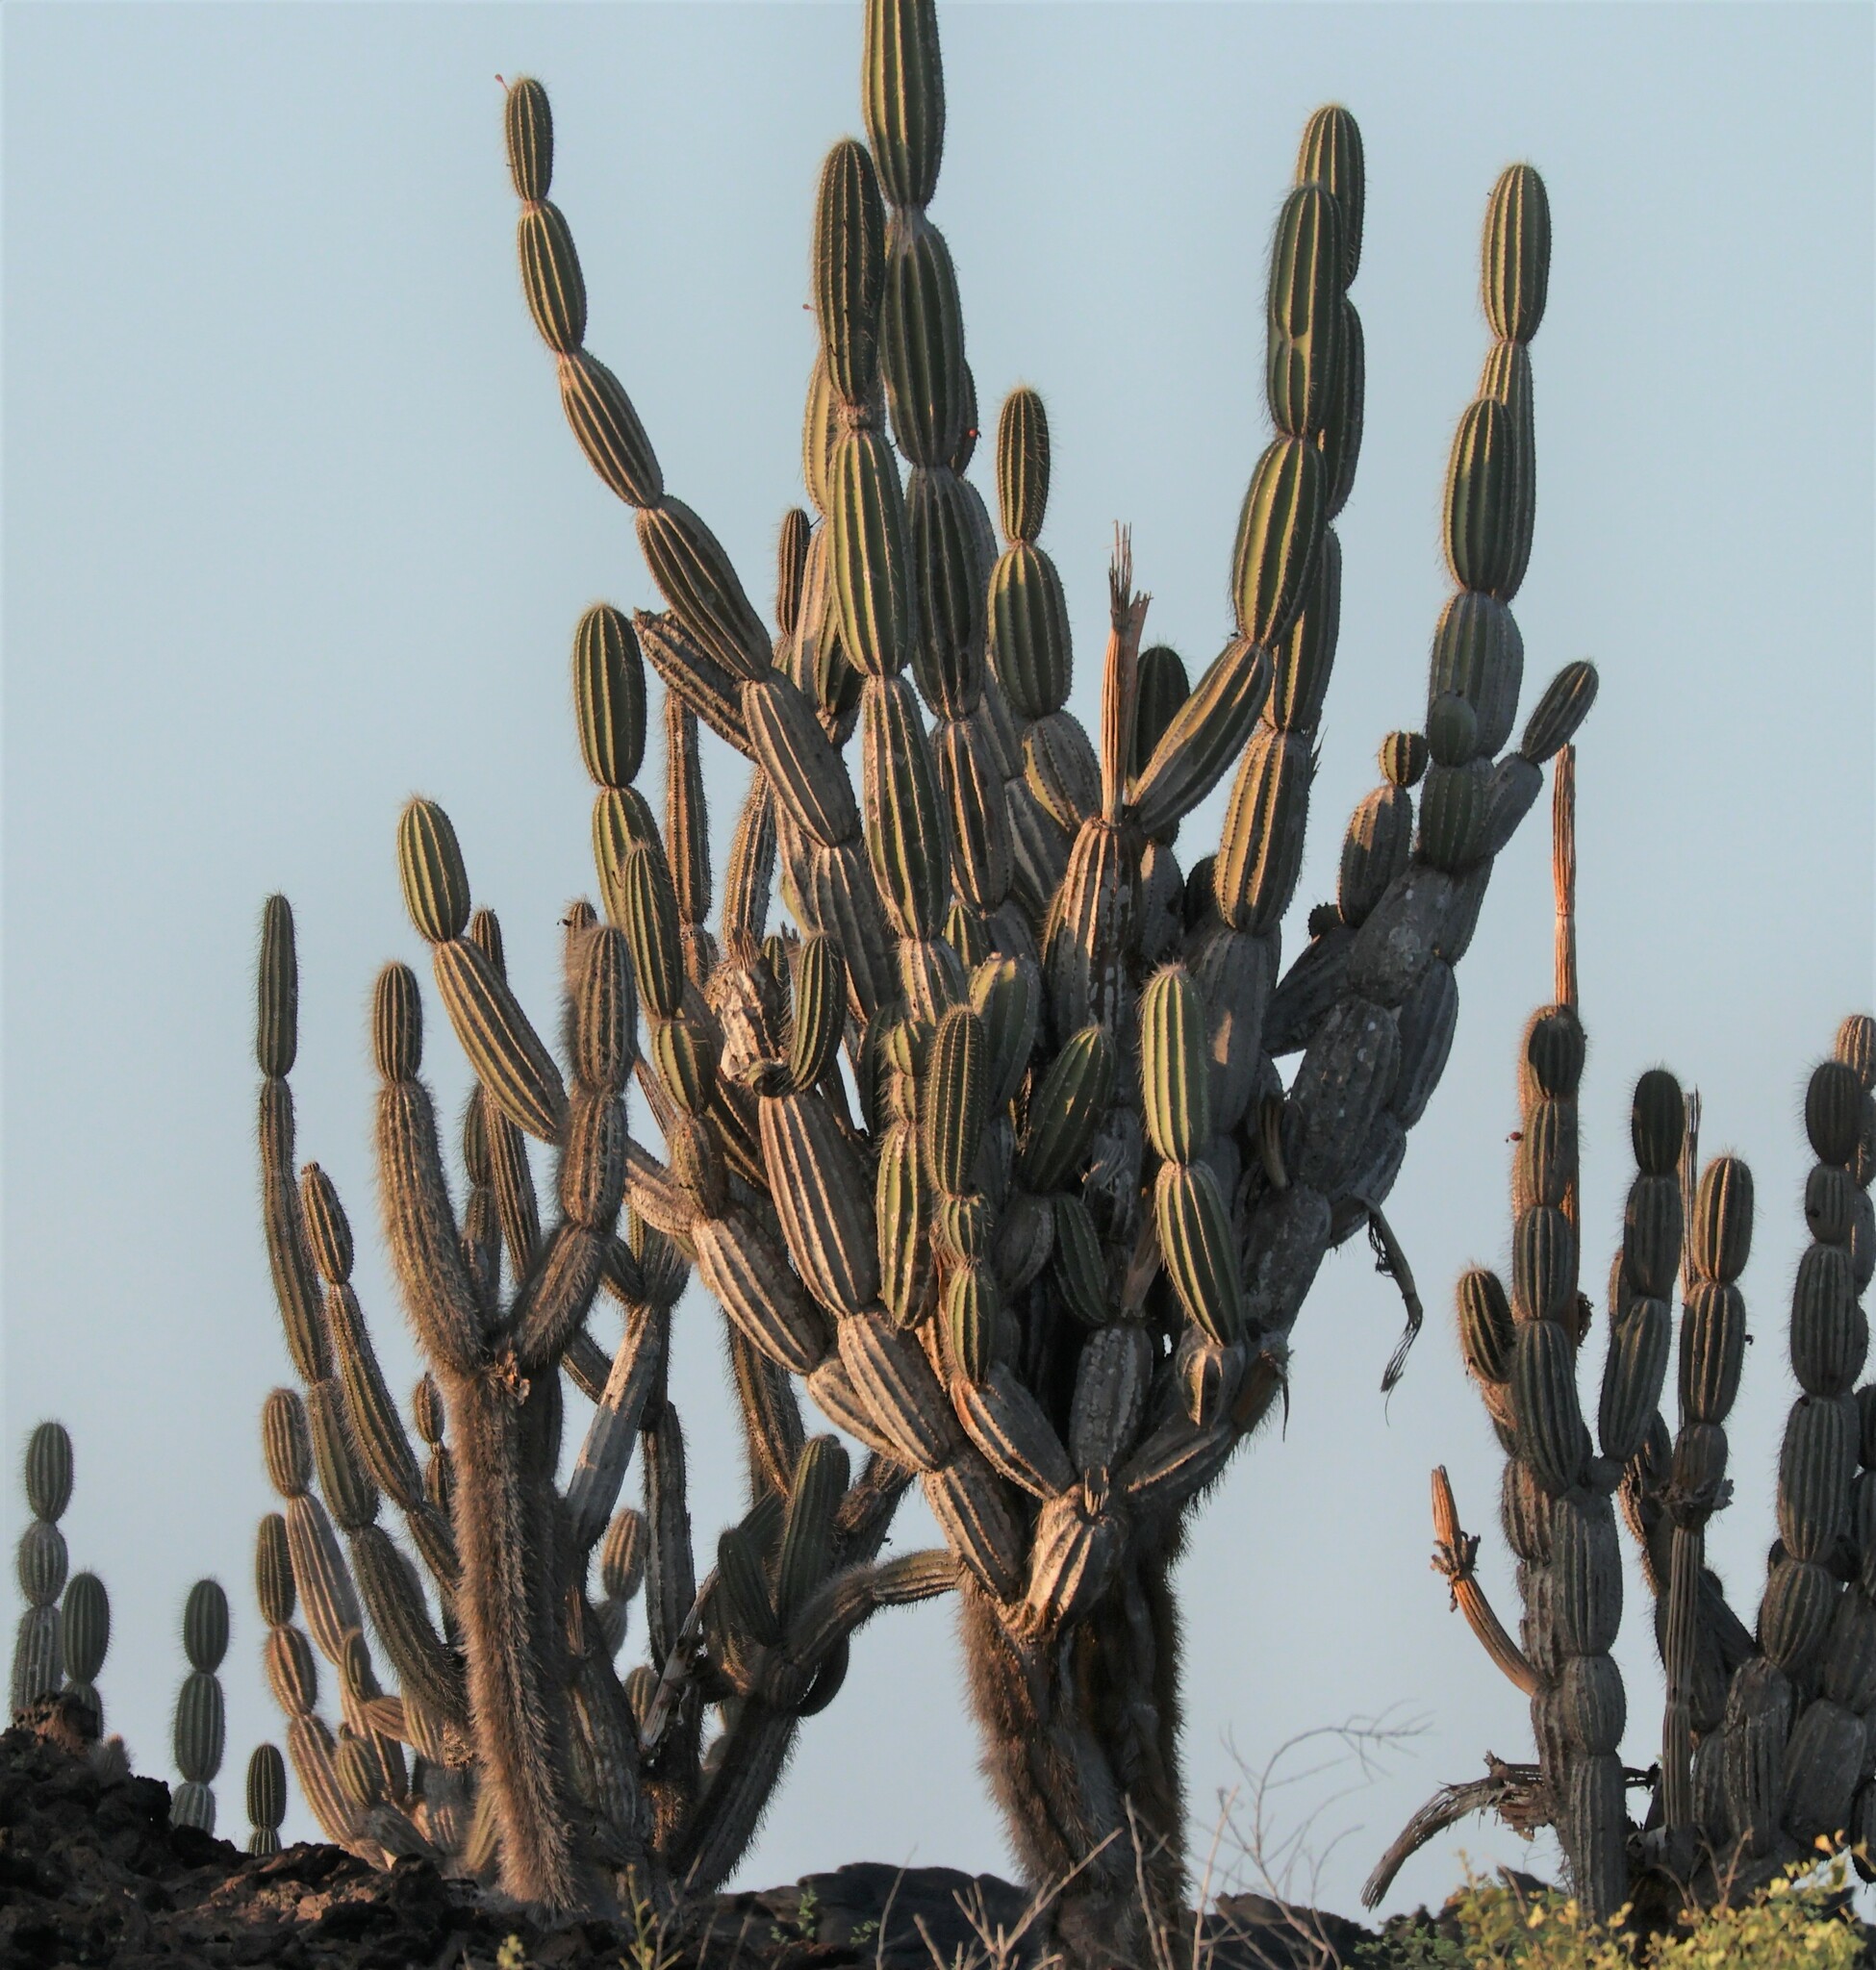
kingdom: Plantae
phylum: Tracheophyta
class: Magnoliopsida
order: Caryophyllales
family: Cactaceae
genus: Jasminocereus
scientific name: Jasminocereus thouarsii
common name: Candelabra cactus
